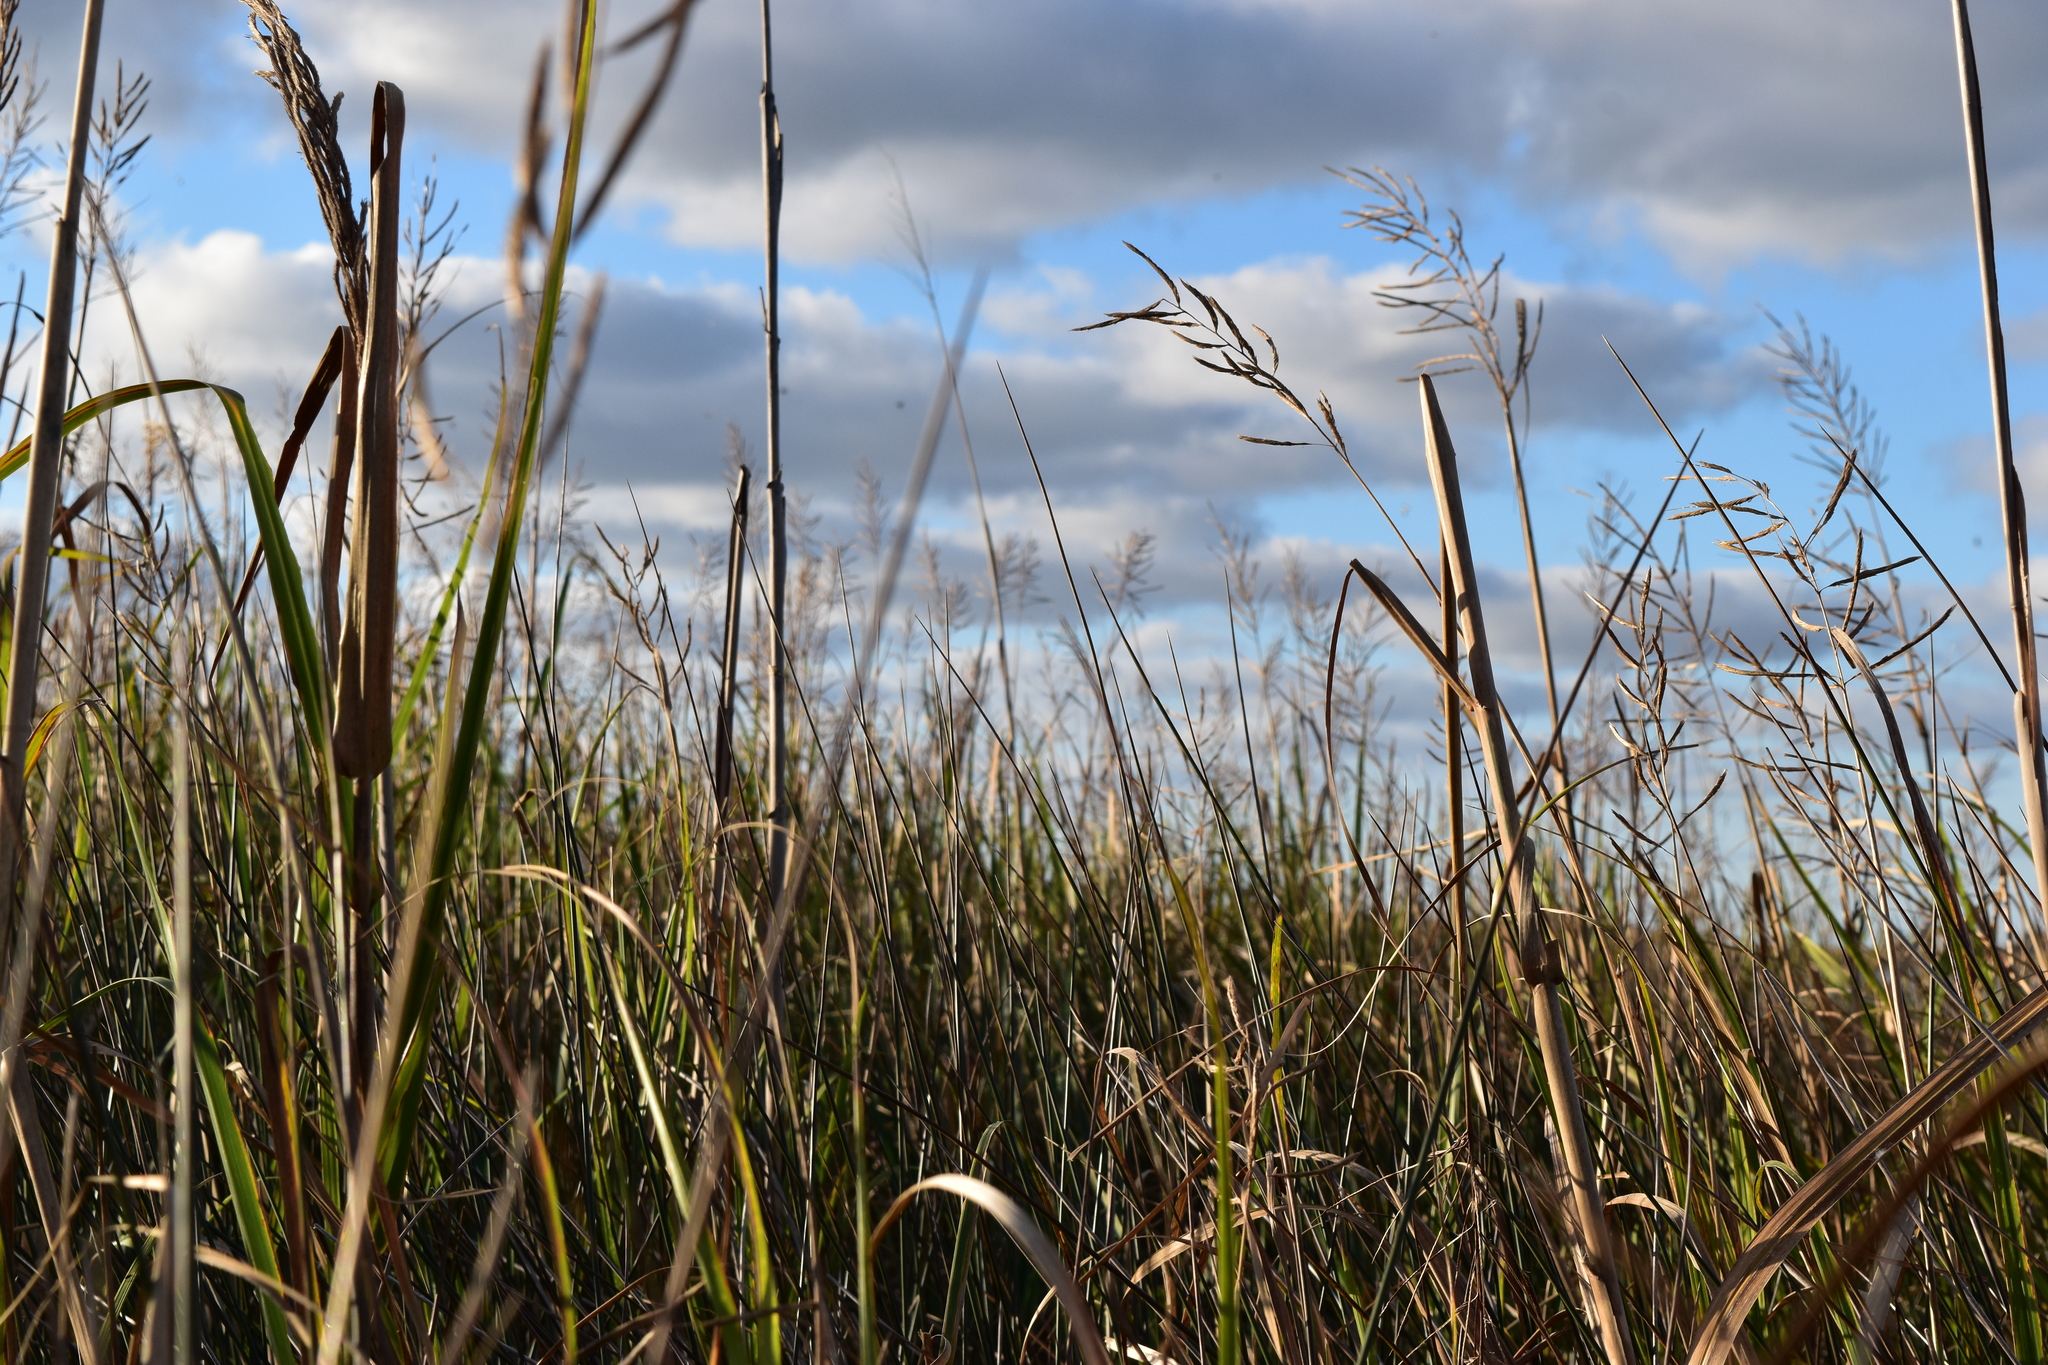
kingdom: Plantae
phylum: Tracheophyta
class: Liliopsida
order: Poales
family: Poaceae
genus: Sporobolus
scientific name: Sporobolus cynosuroides
